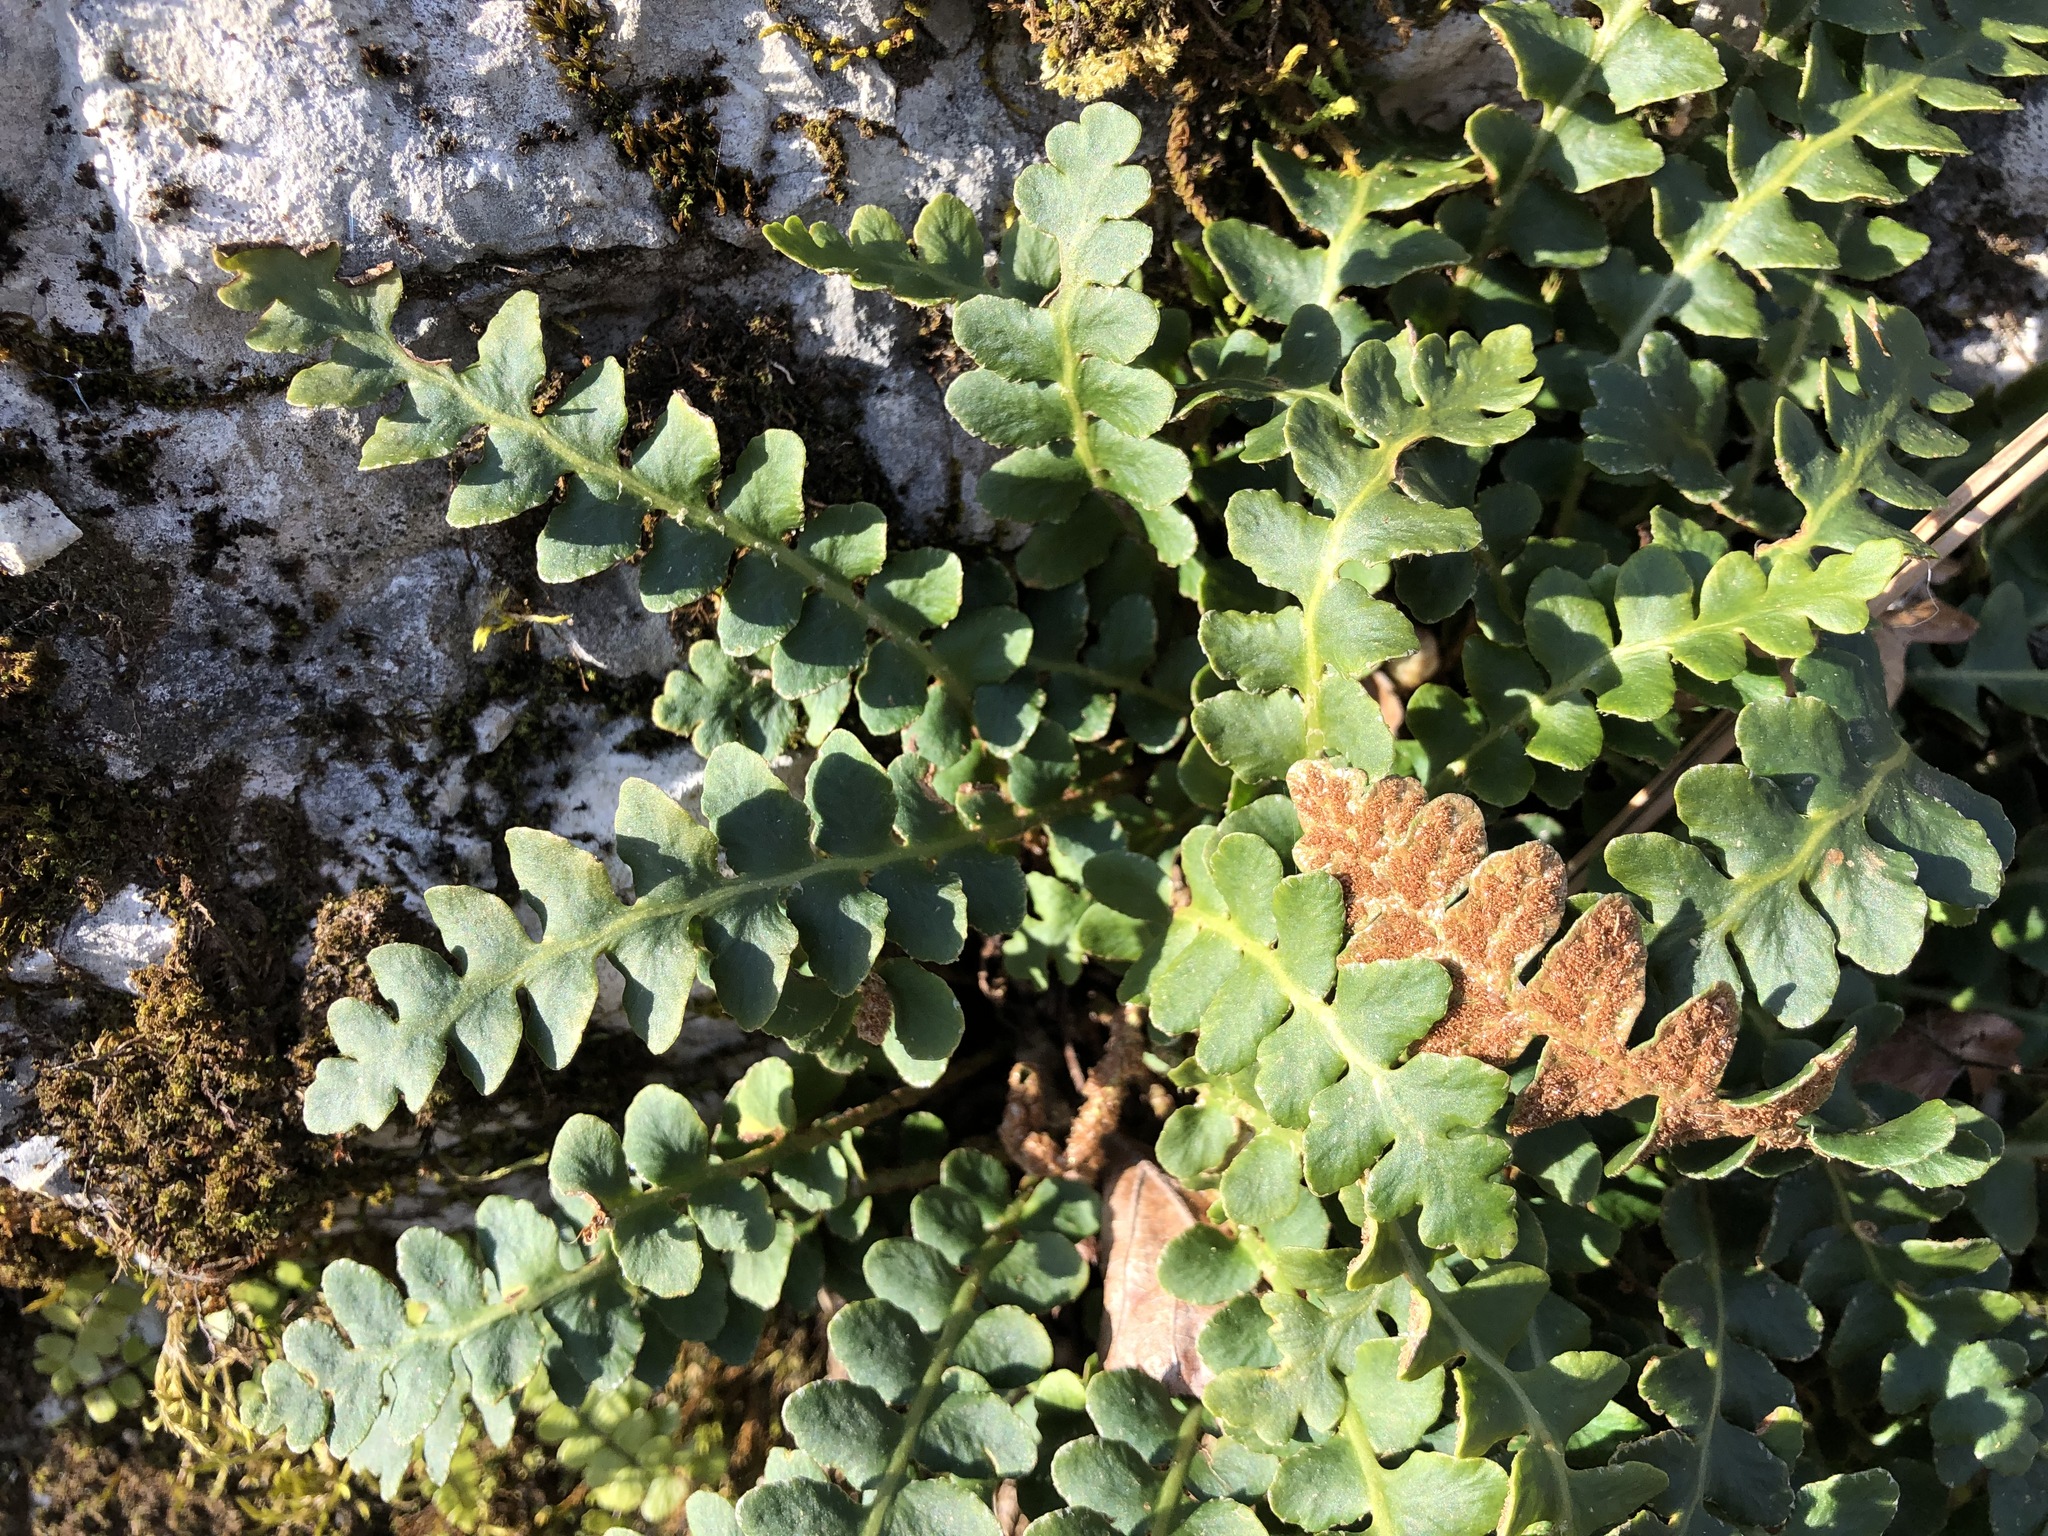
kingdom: Plantae
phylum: Tracheophyta
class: Polypodiopsida
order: Polypodiales
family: Aspleniaceae
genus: Asplenium
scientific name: Asplenium ceterach
